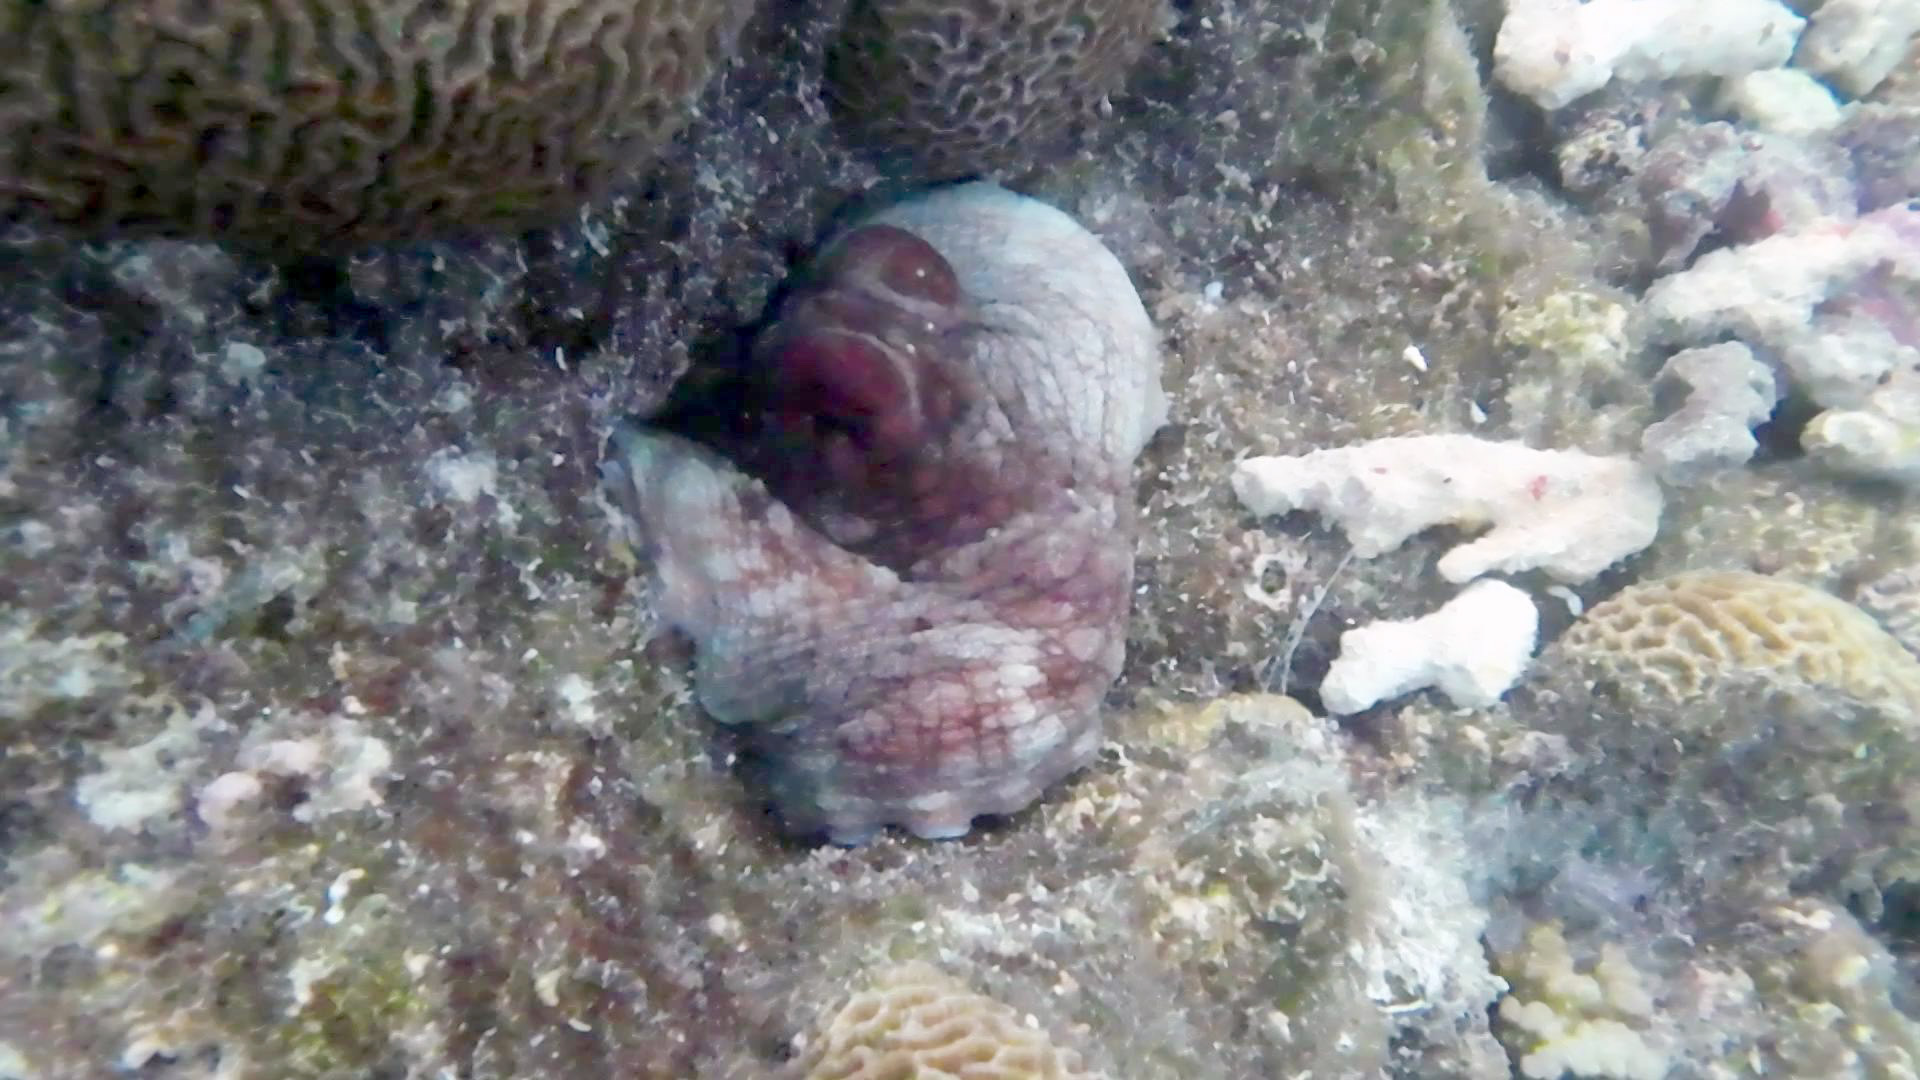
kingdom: Animalia
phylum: Mollusca
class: Cephalopoda
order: Octopoda
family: Octopodidae
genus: Octopus
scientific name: Octopus cyanea
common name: Cyane's octopus
